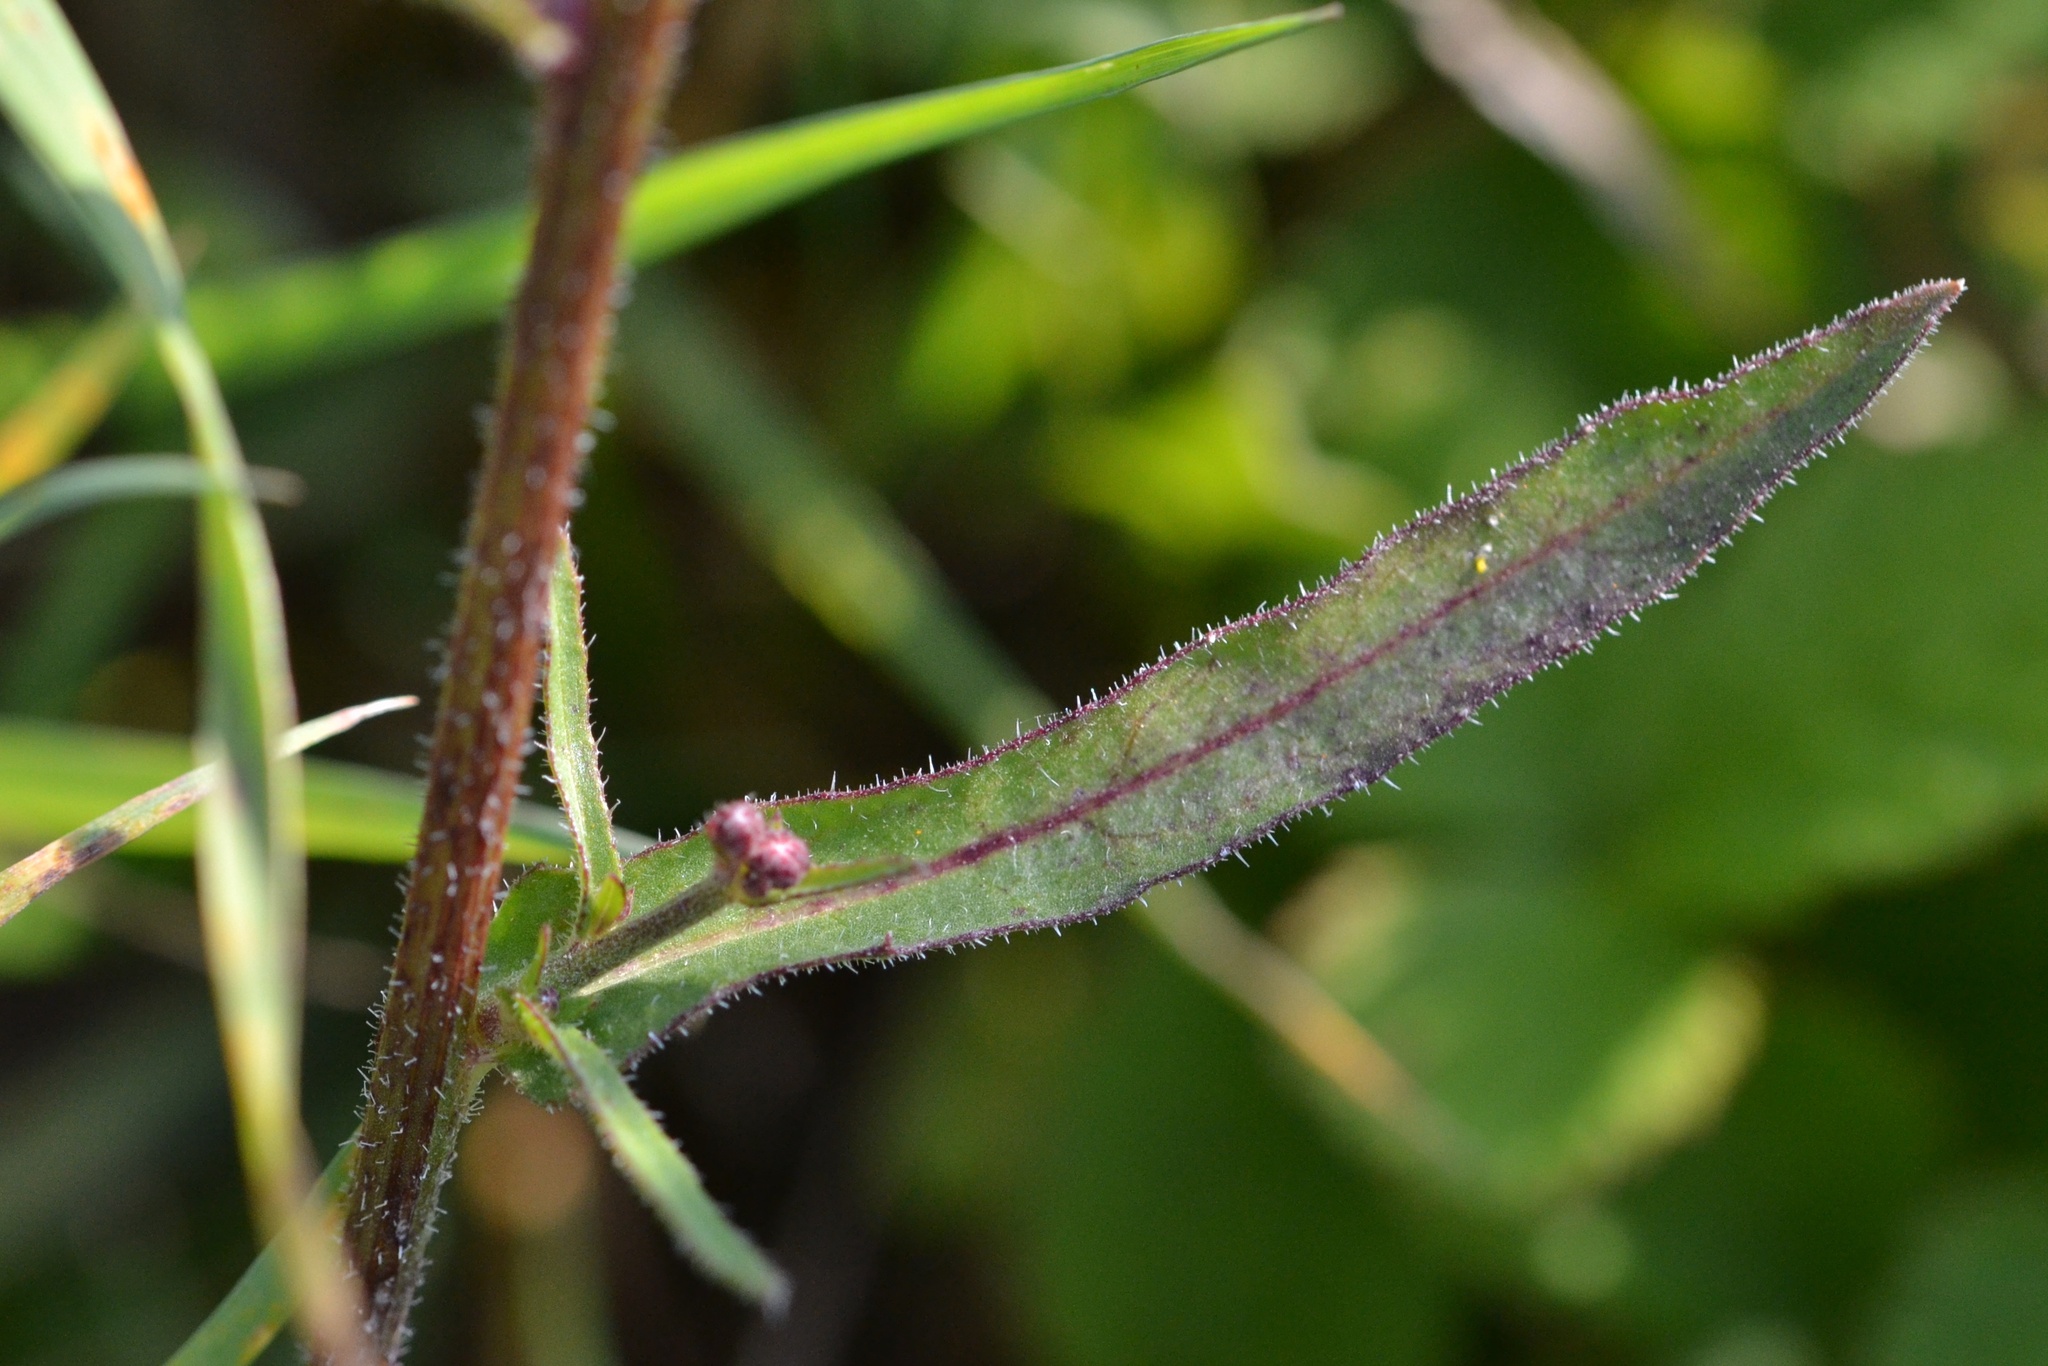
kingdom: Plantae
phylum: Tracheophyta
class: Magnoliopsida
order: Asterales
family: Asteraceae
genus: Picris
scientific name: Picris hieracioides
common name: Hawkweed oxtongue
